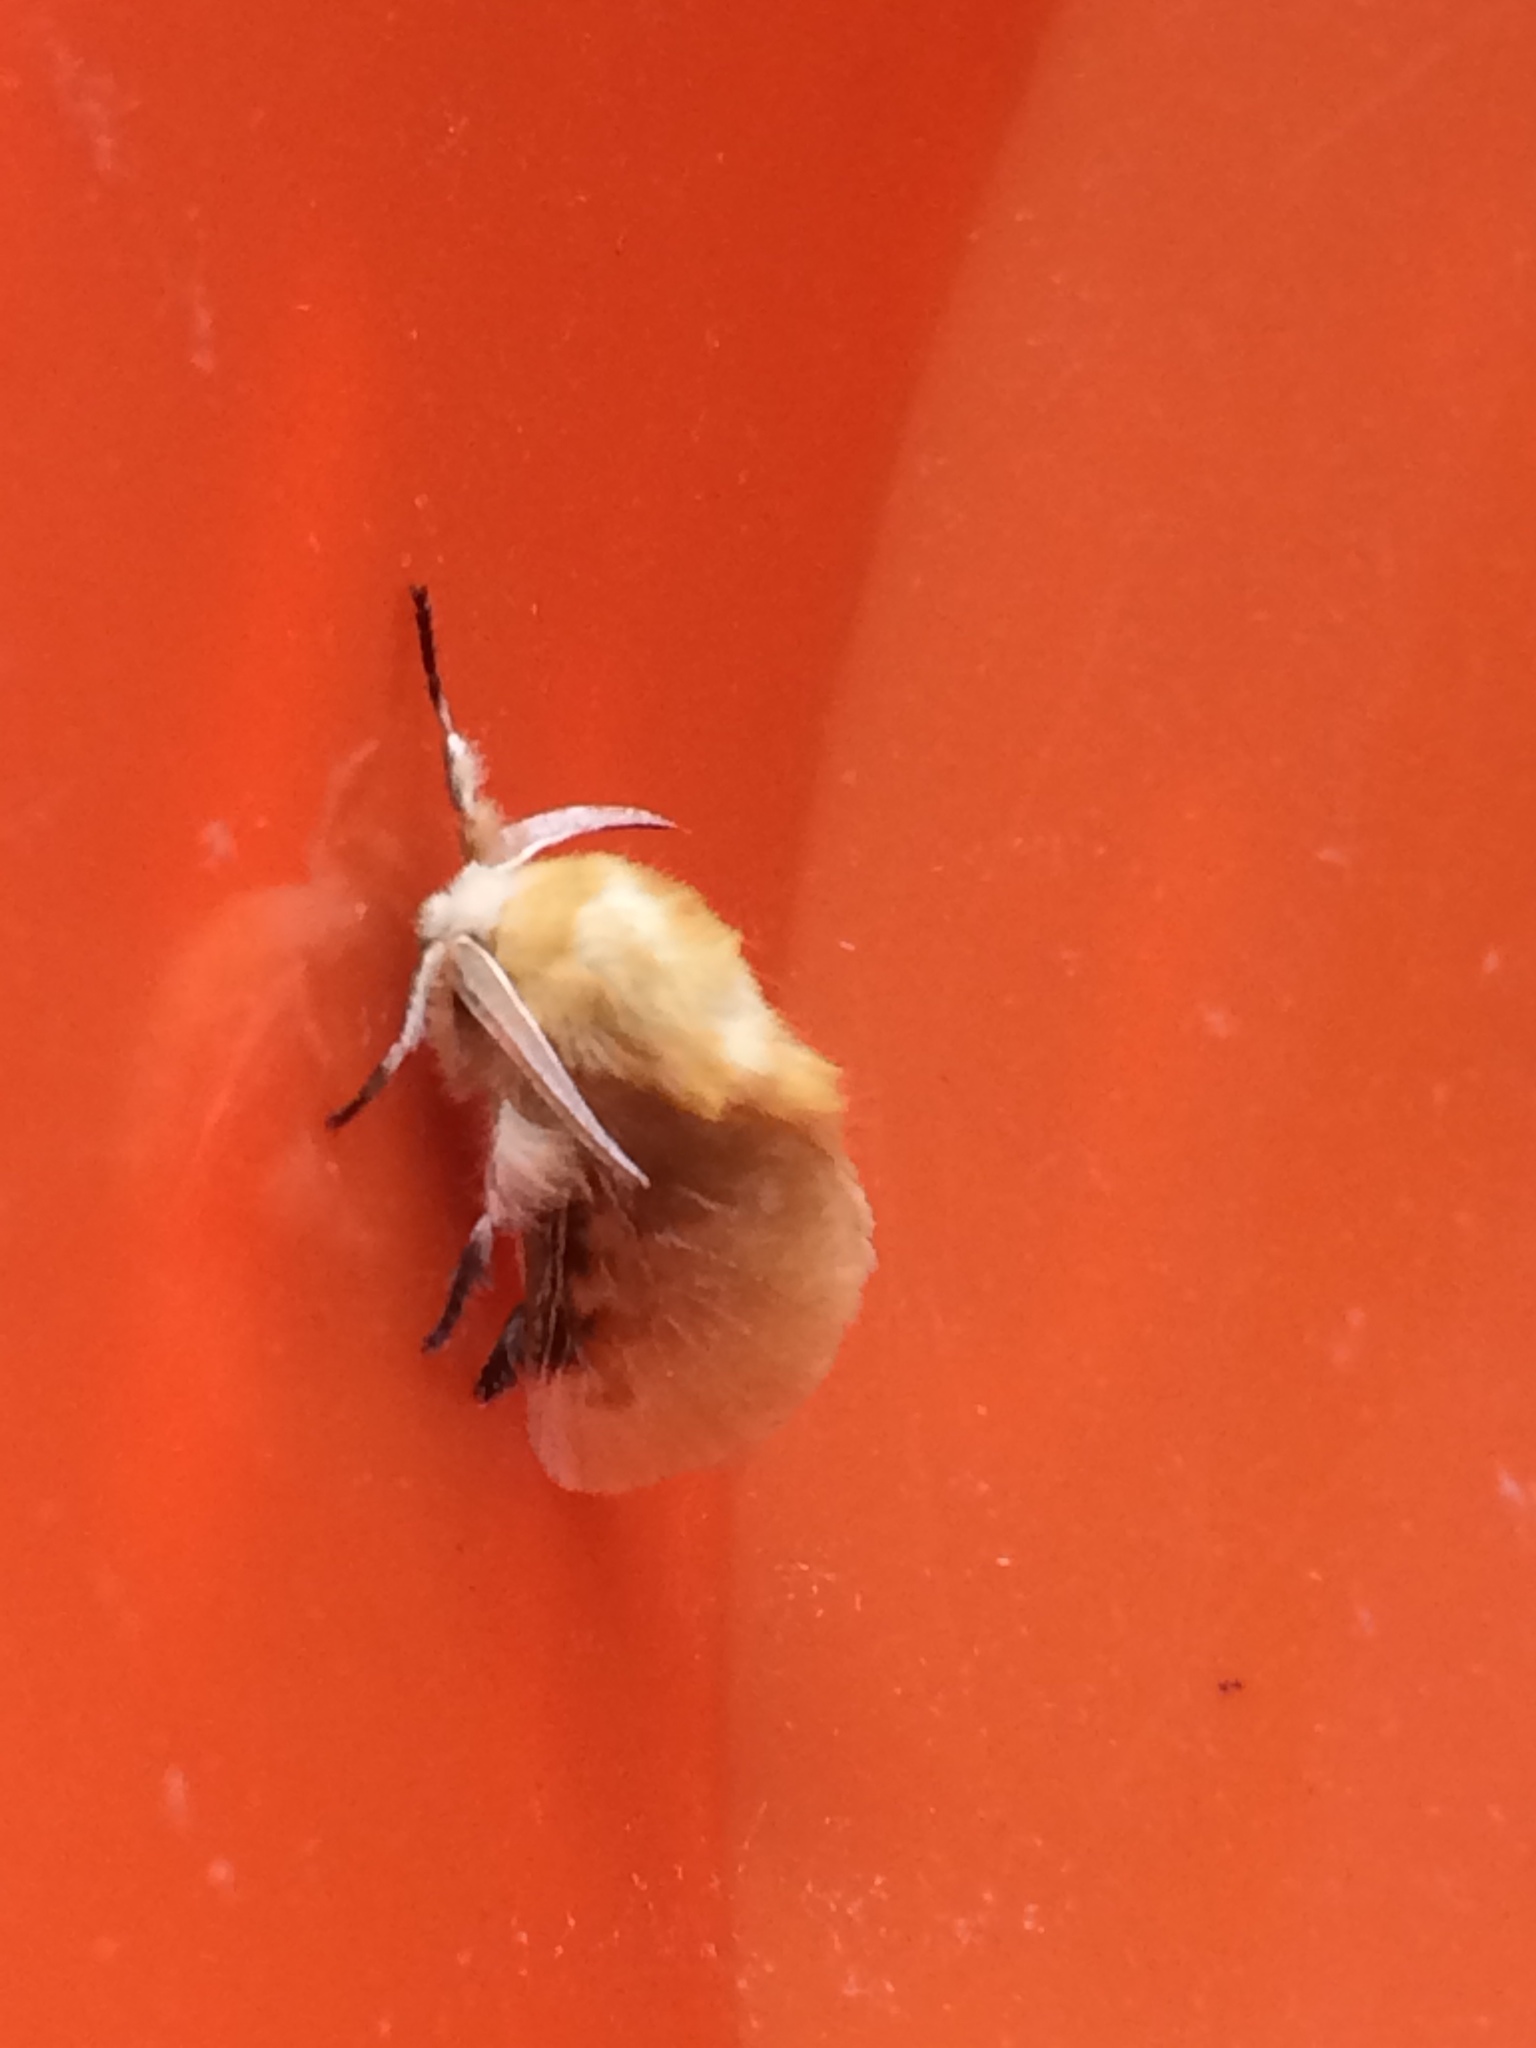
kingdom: Animalia
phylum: Arthropoda
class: Insecta
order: Lepidoptera
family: Megalopygidae
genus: Megalopyge
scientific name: Megalopyge opercularis
